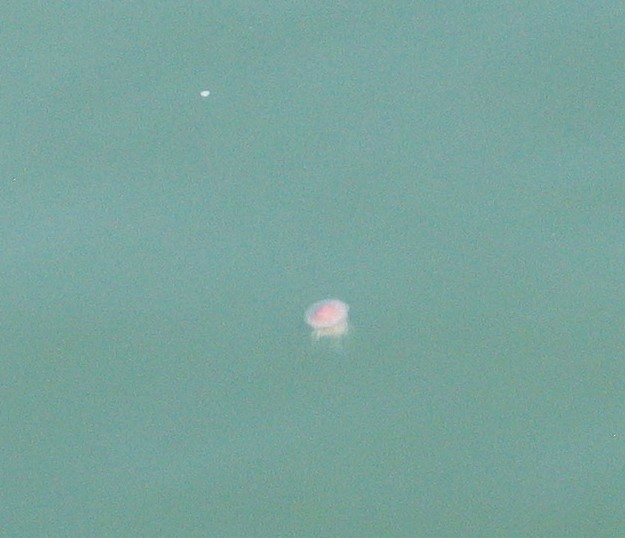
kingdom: Animalia
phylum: Cnidaria
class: Scyphozoa
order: Semaeostomeae
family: Cyaneidae
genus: Cyanea
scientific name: Cyanea fulva
